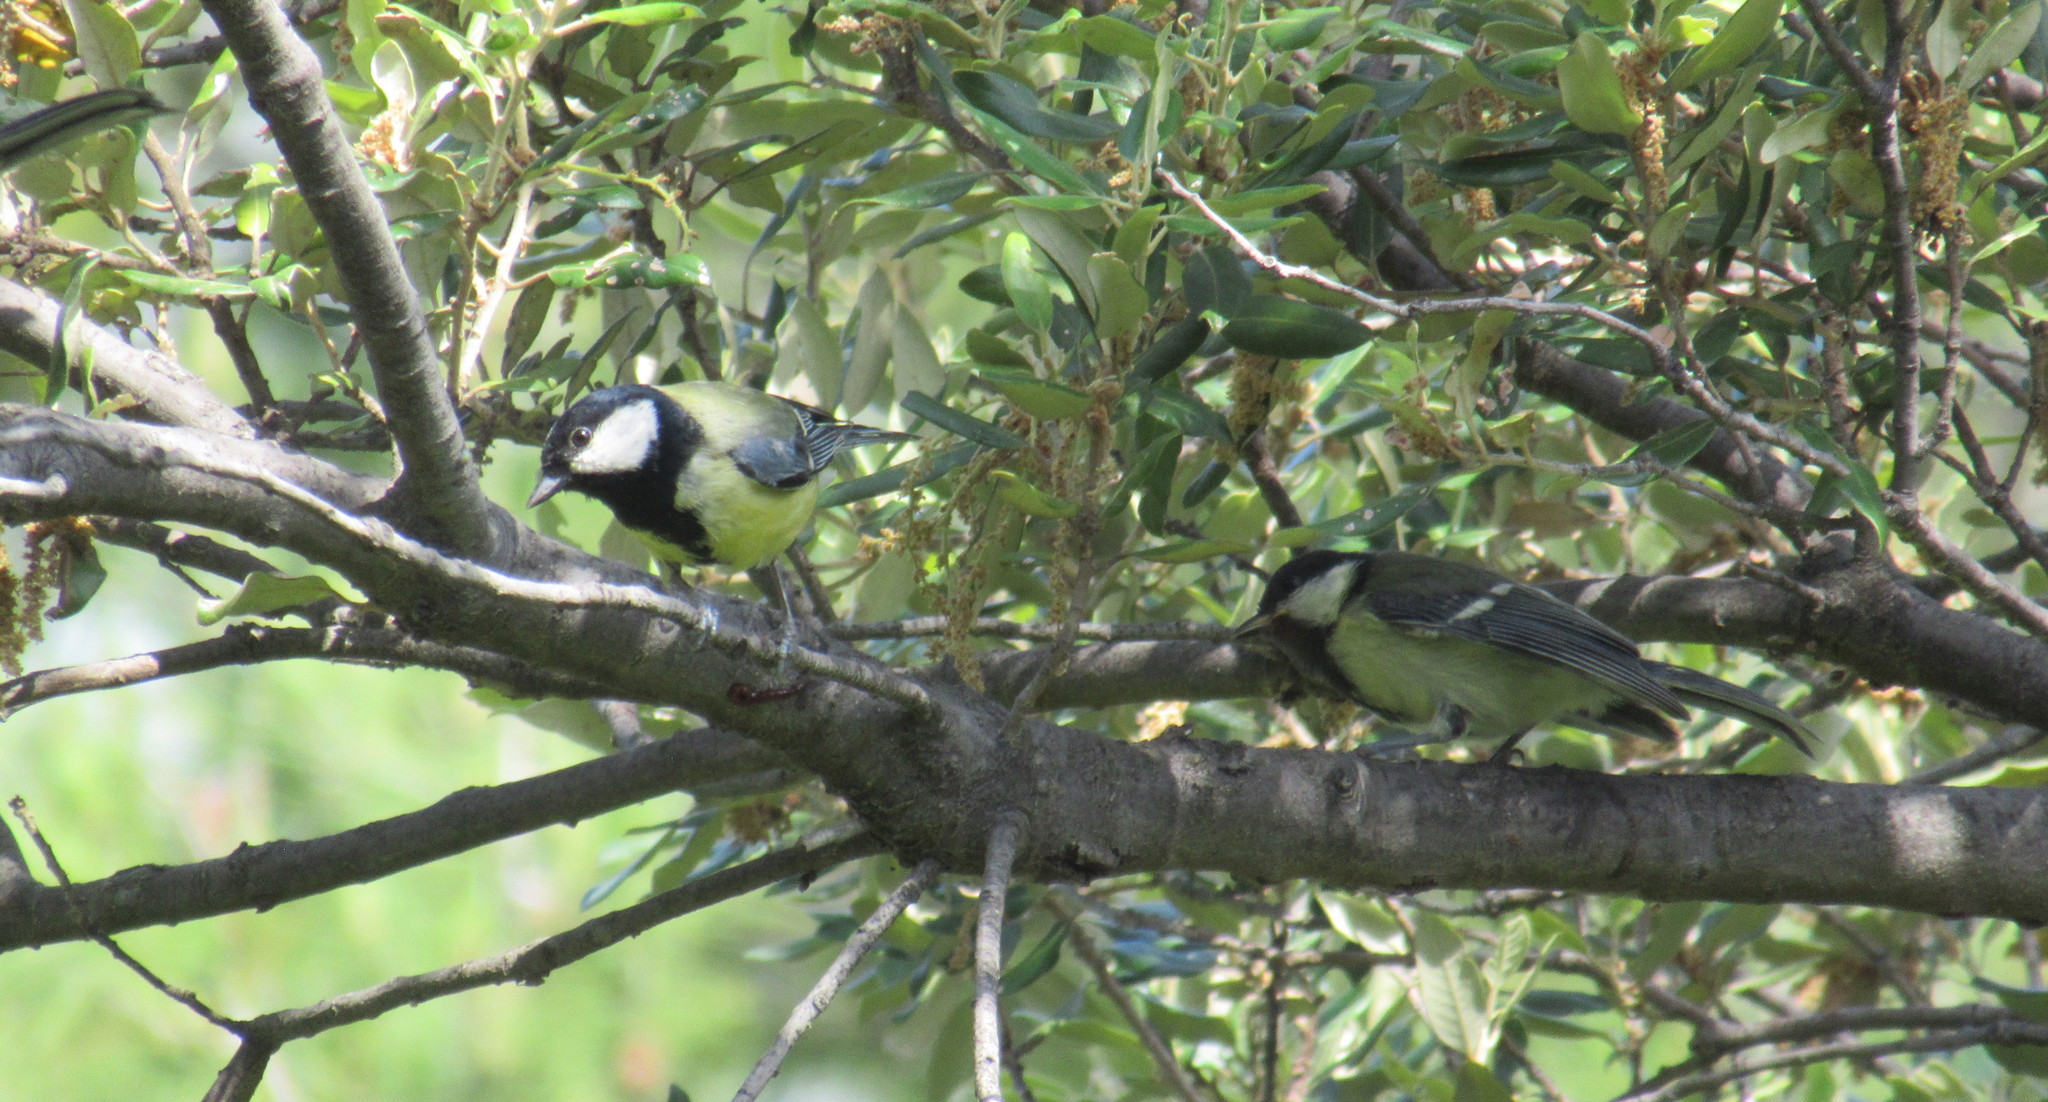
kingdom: Animalia
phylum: Chordata
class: Aves
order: Passeriformes
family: Paridae
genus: Parus
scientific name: Parus major
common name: Great tit
